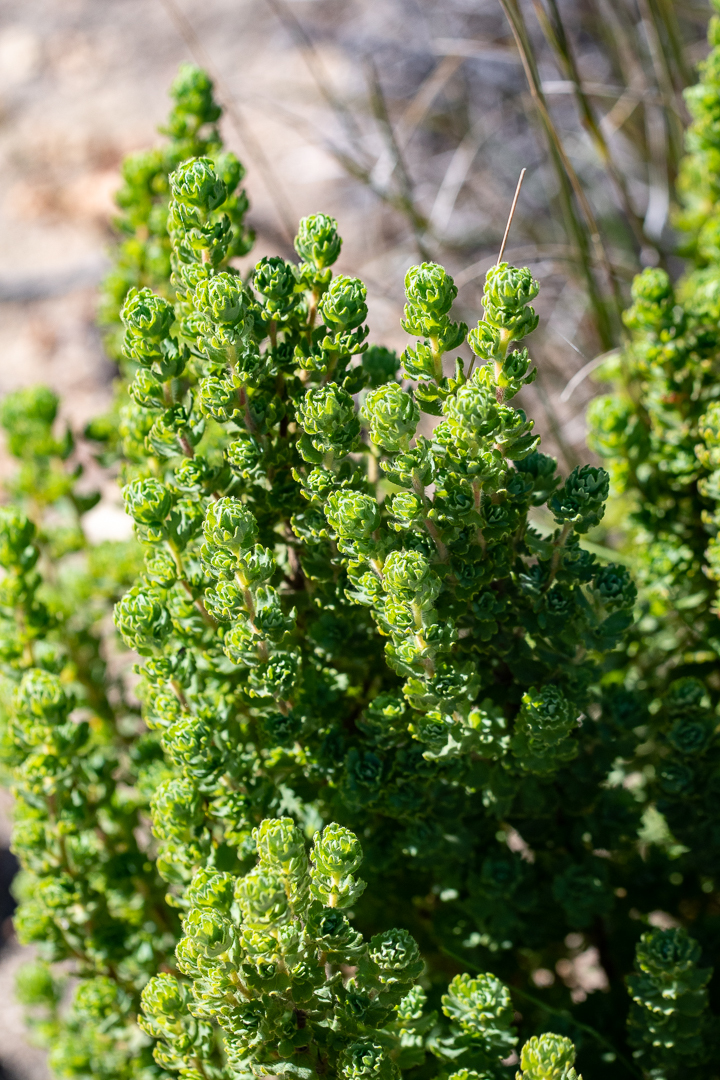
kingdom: Plantae
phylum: Tracheophyta
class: Magnoliopsida
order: Rosales
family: Rosaceae
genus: Cliffortia
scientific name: Cliffortia polygonifolia
